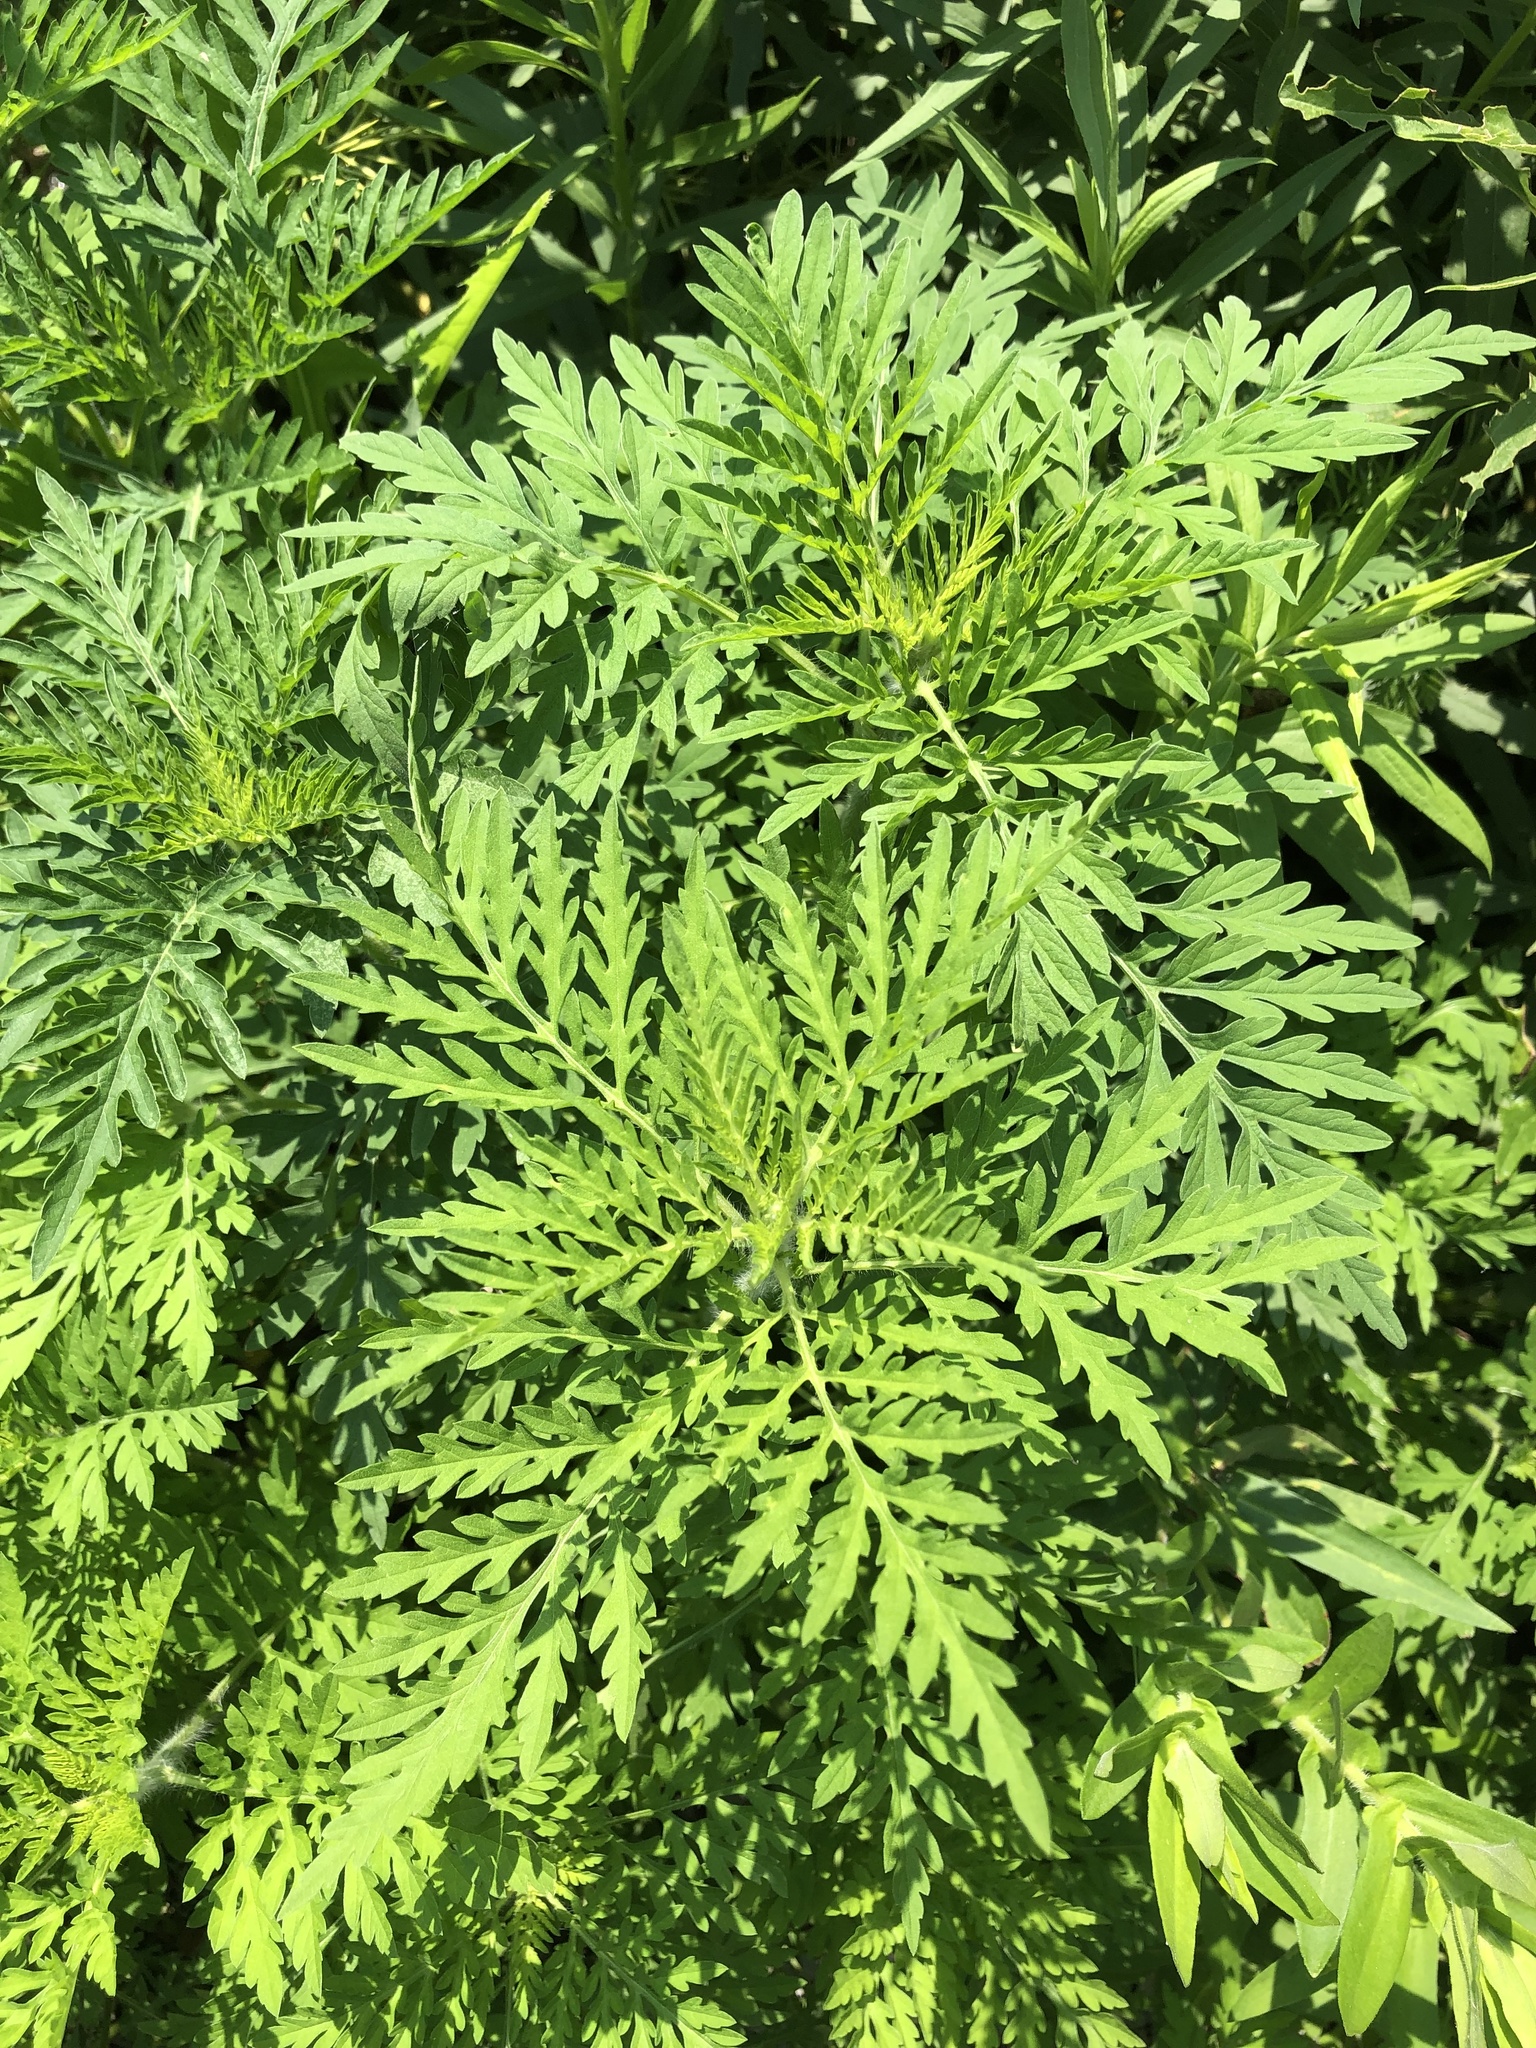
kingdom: Plantae
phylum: Tracheophyta
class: Magnoliopsida
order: Asterales
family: Asteraceae
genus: Ambrosia
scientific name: Ambrosia artemisiifolia
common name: Annual ragweed
